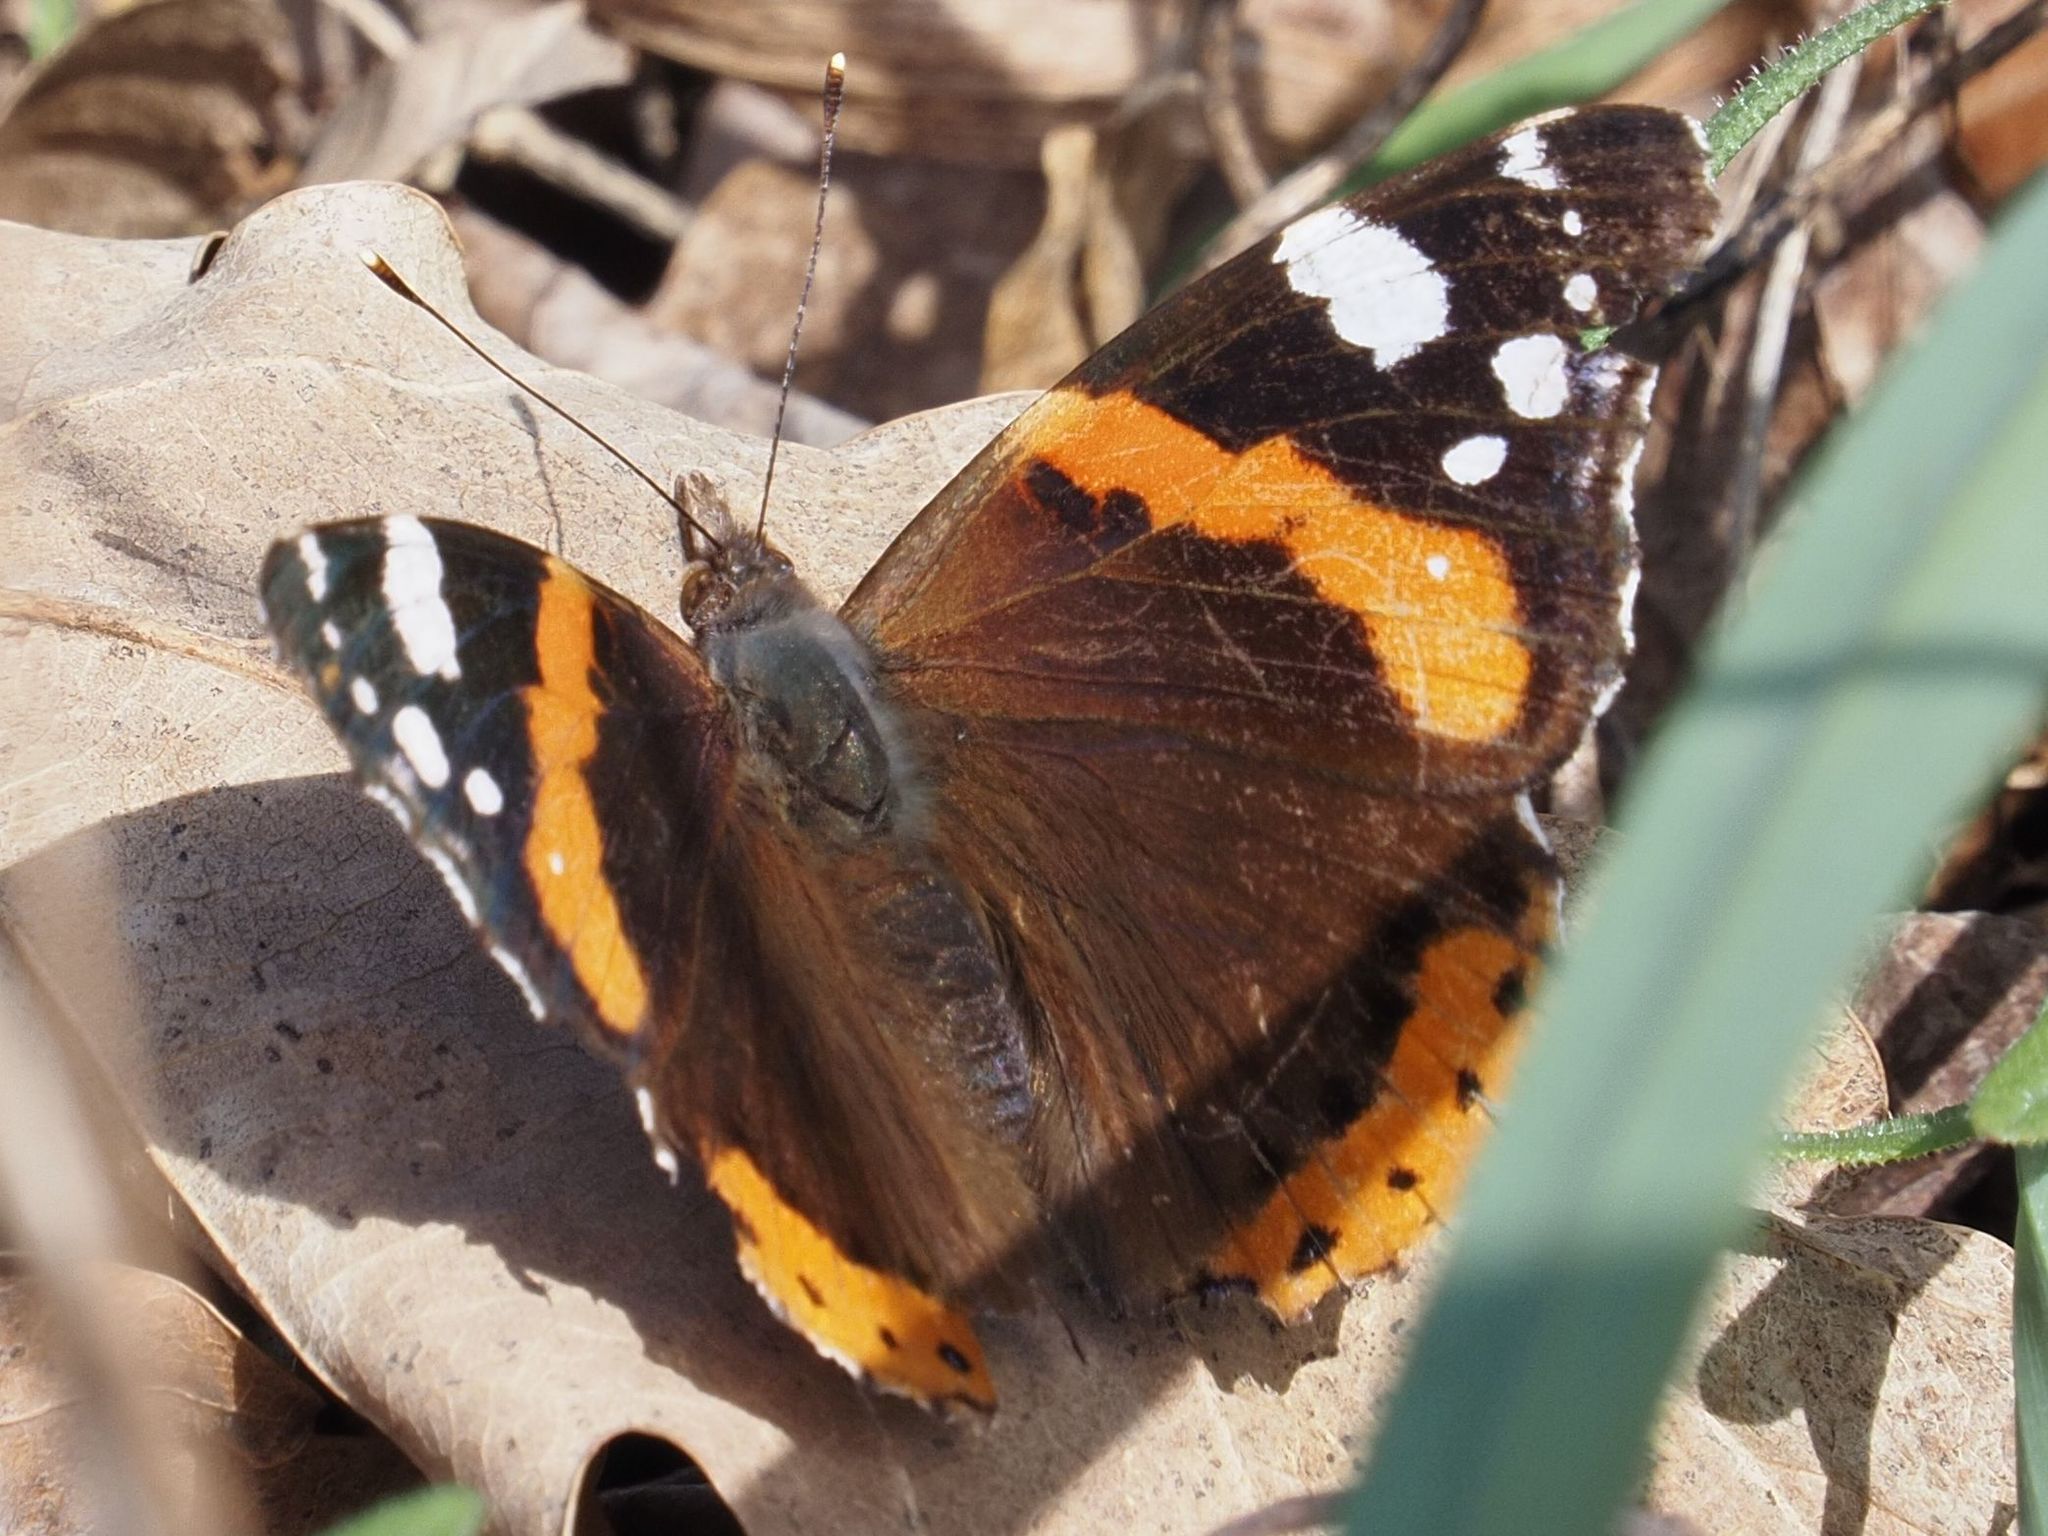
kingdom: Animalia
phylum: Arthropoda
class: Insecta
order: Lepidoptera
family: Nymphalidae
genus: Vanessa
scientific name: Vanessa atalanta
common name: Red admiral
